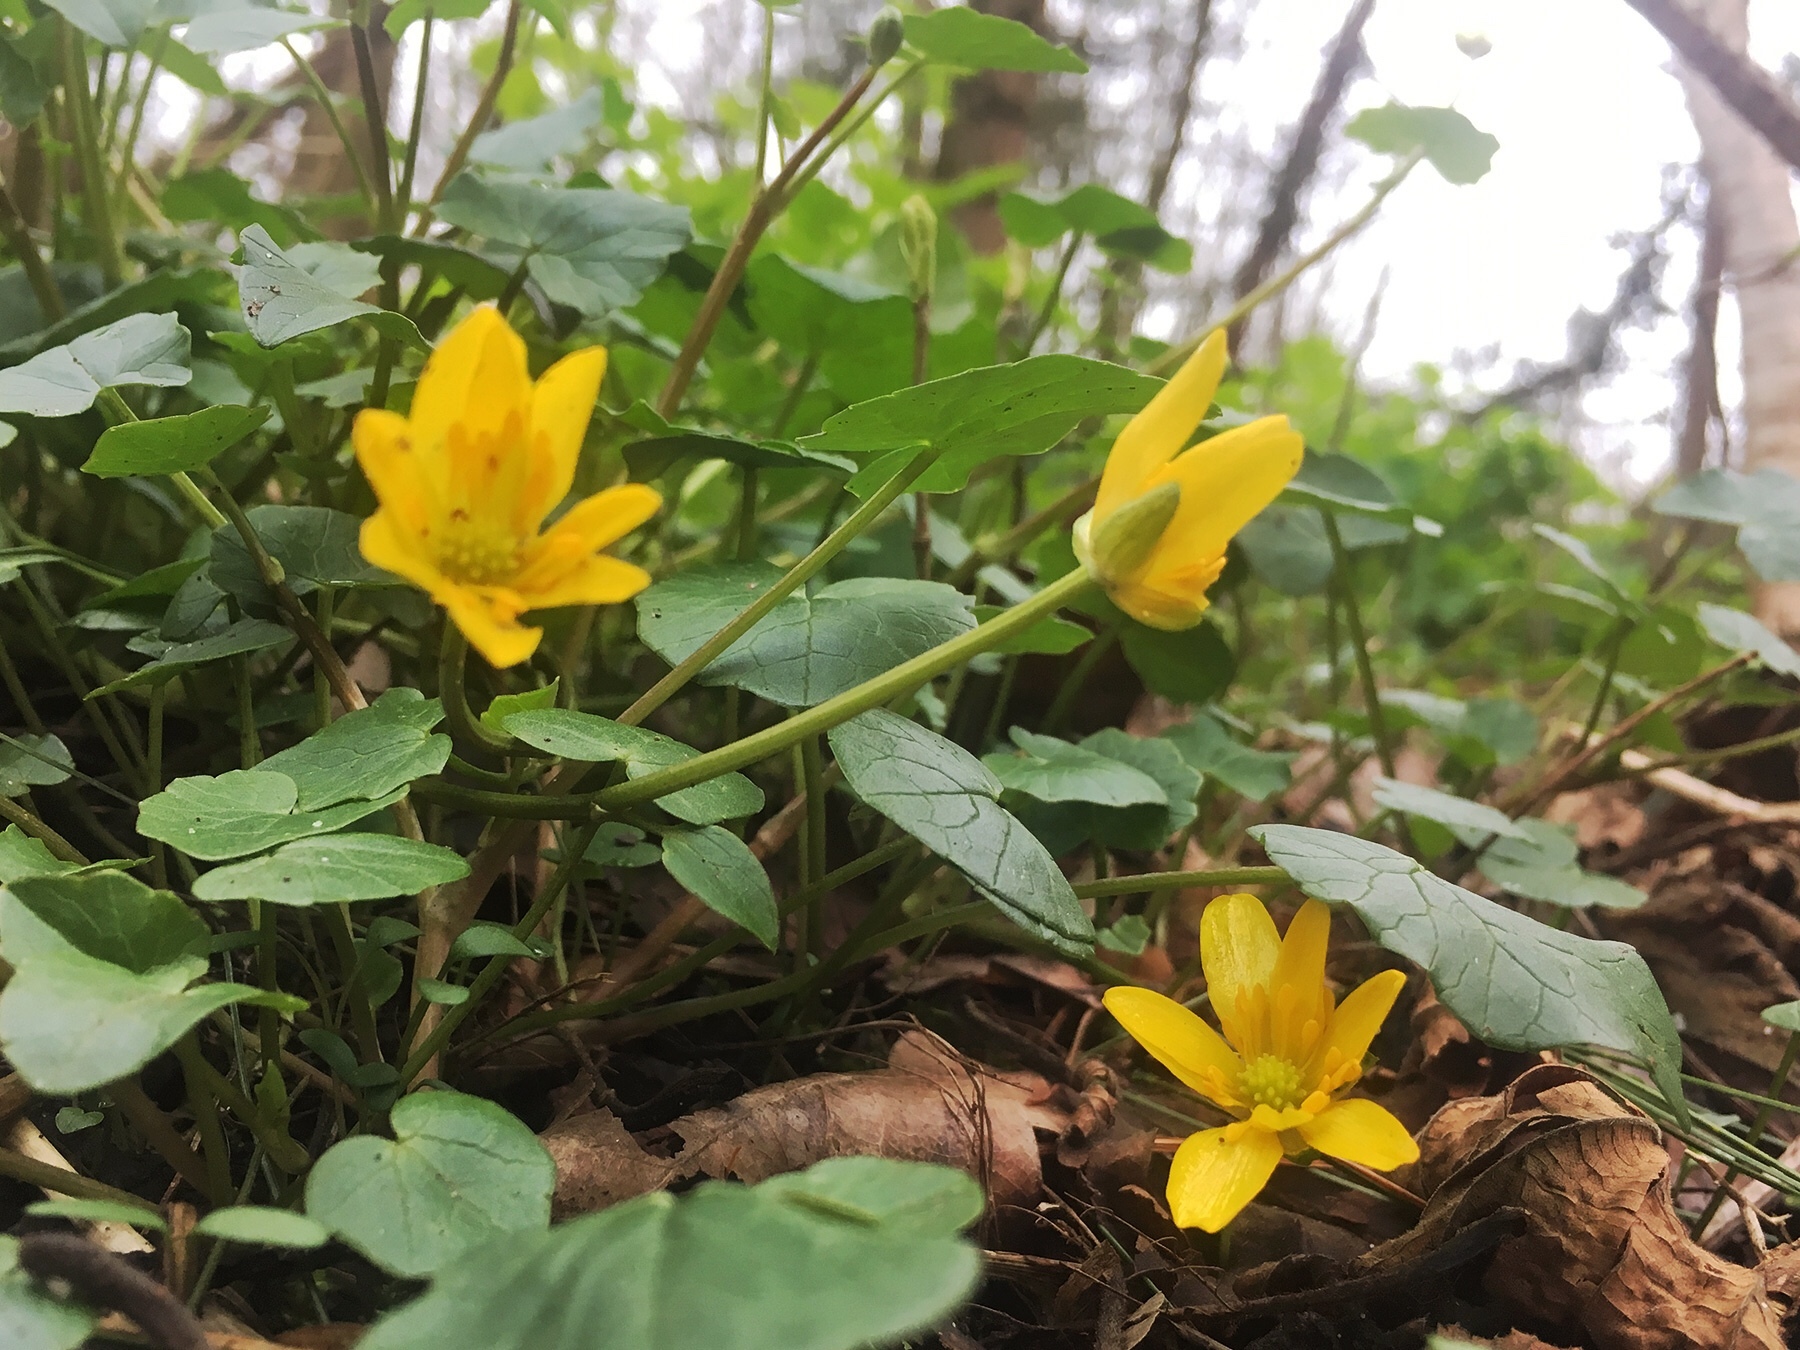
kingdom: Plantae
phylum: Tracheophyta
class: Magnoliopsida
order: Ranunculales
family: Ranunculaceae
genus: Ficaria
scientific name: Ficaria verna
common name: Lesser celandine
